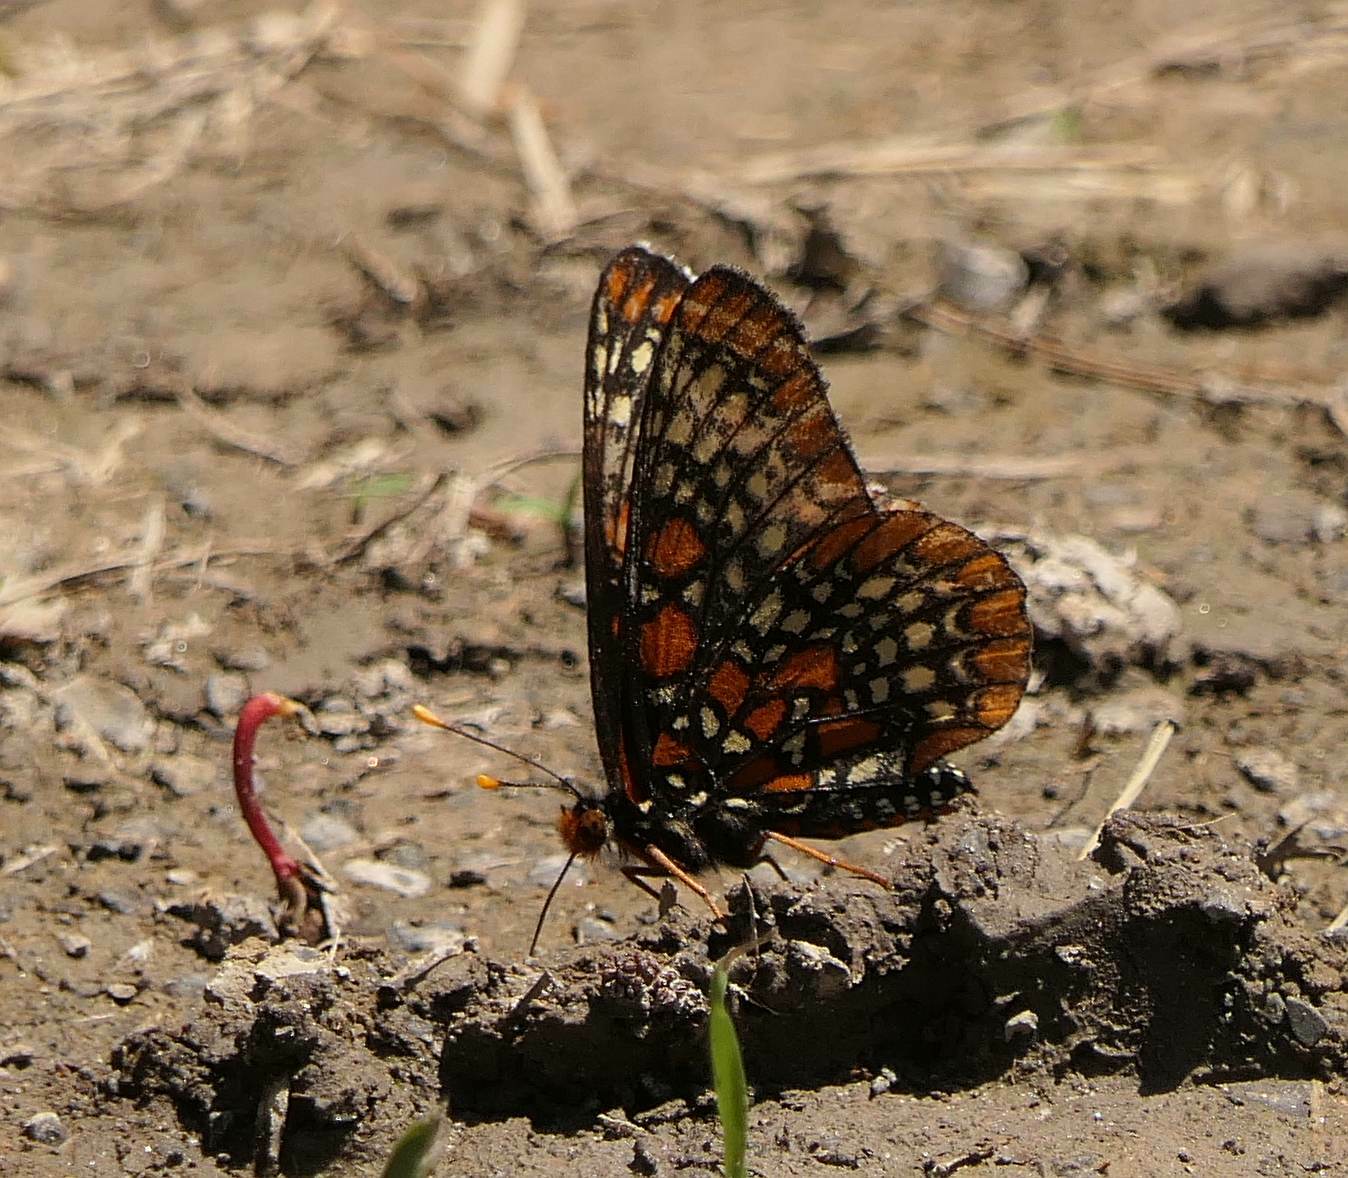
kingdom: Animalia
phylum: Arthropoda
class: Insecta
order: Lepidoptera
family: Nymphalidae
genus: Euphydryas
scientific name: Euphydryas phaeton
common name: Baltimore checkerspot
